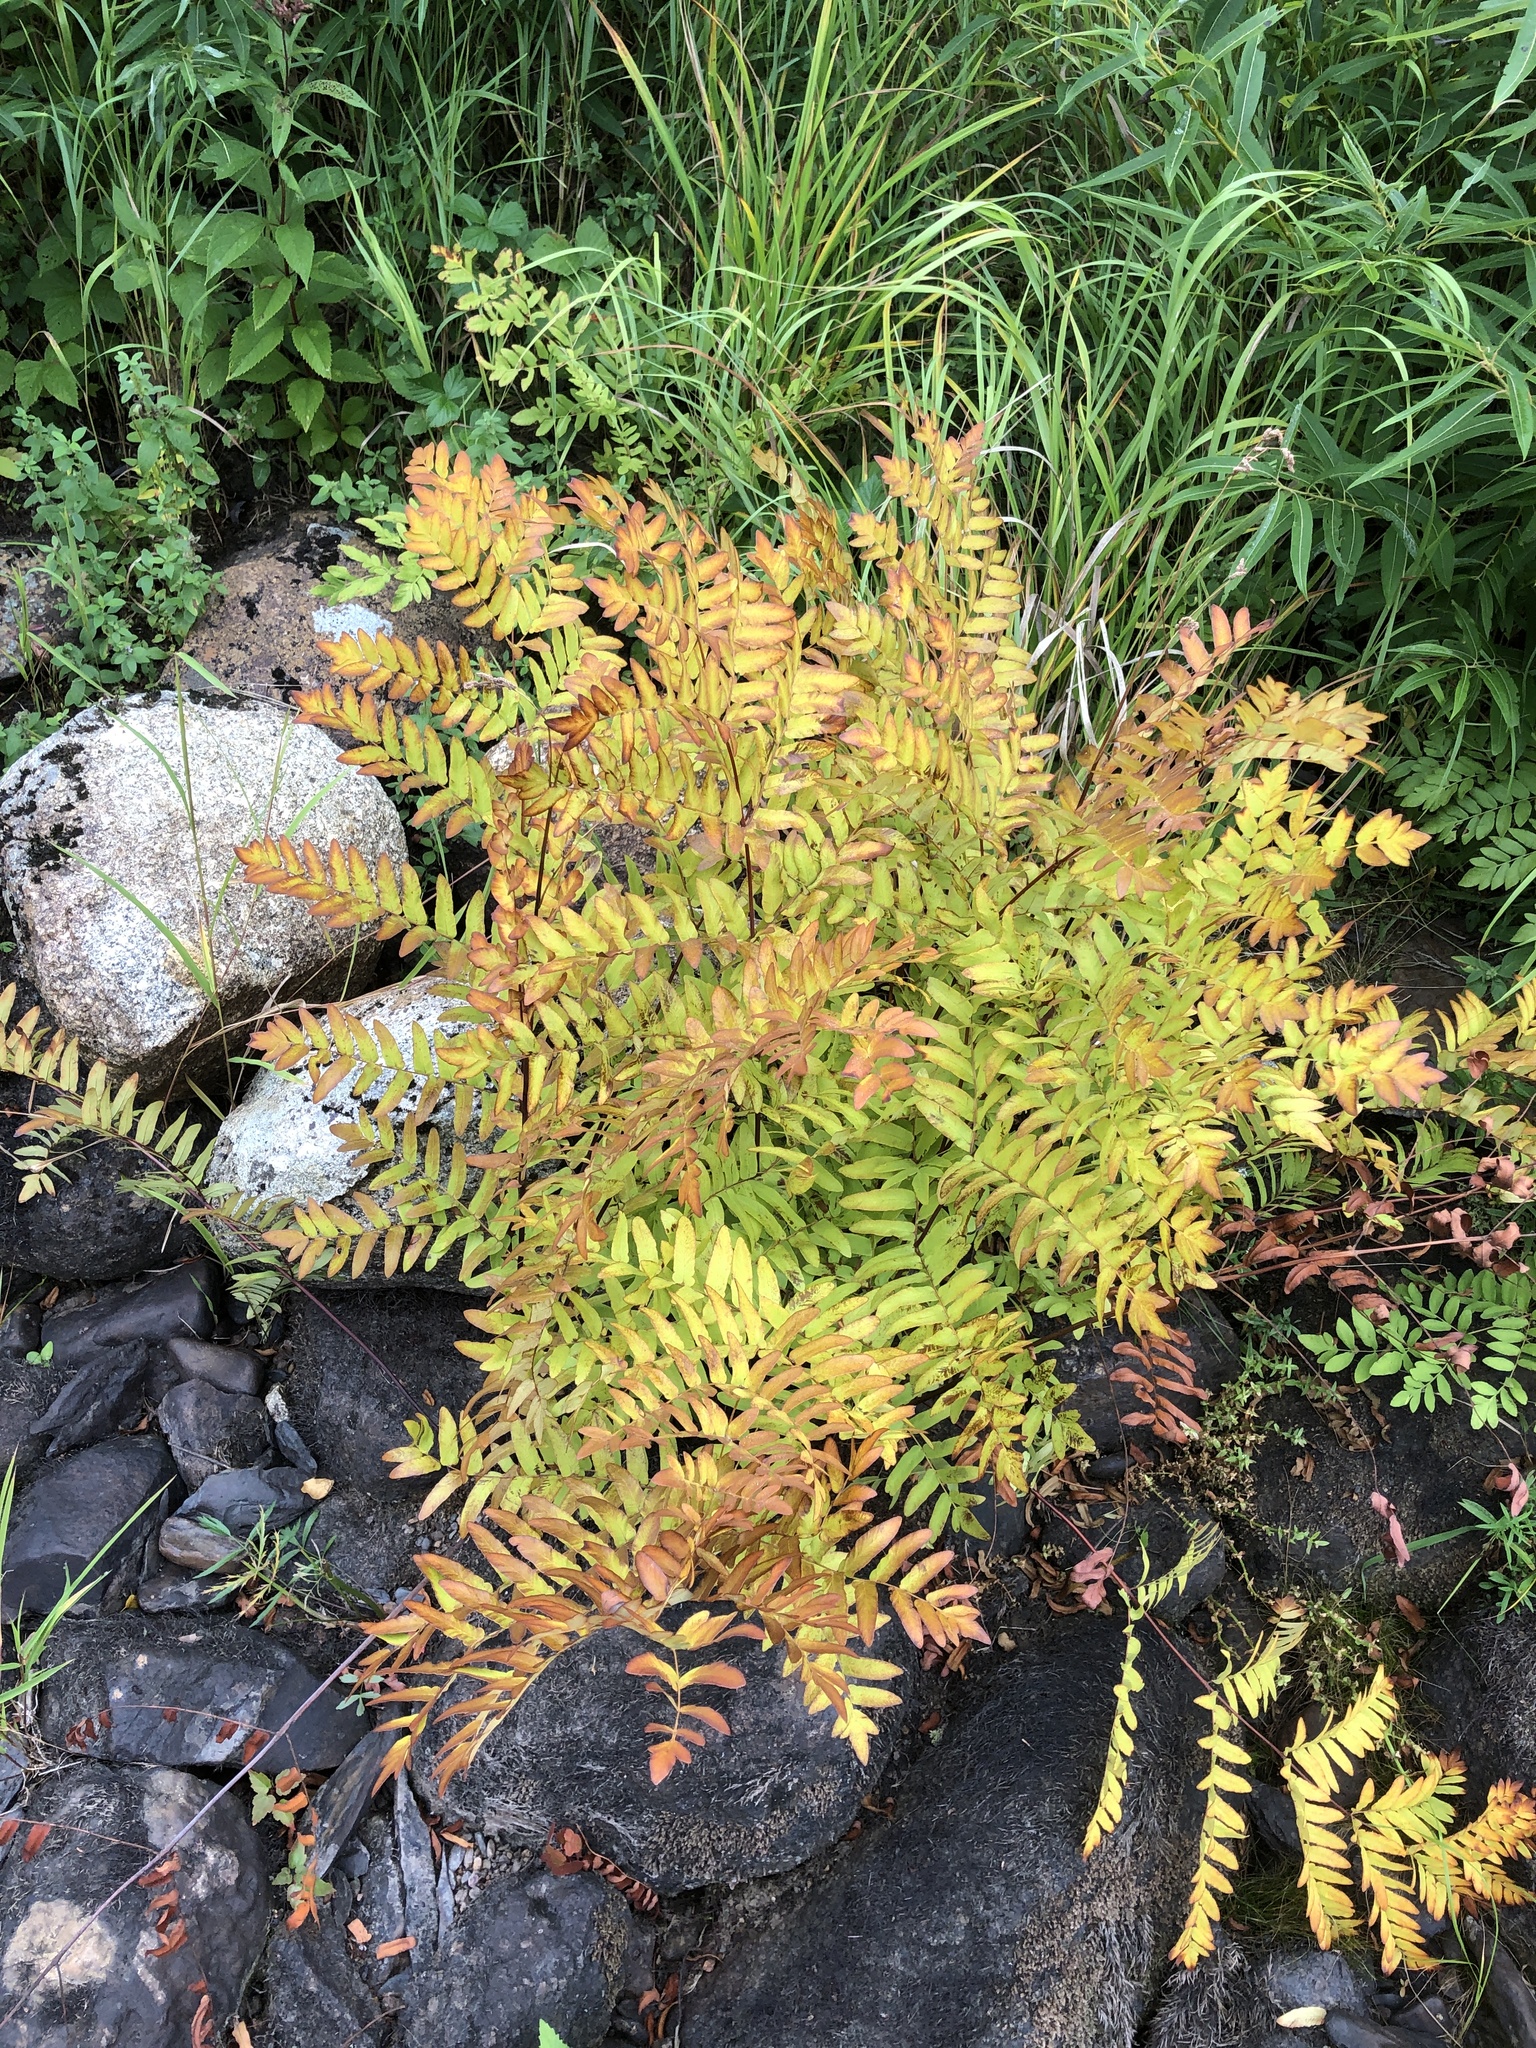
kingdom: Plantae
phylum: Tracheophyta
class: Polypodiopsida
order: Osmundales
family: Osmundaceae
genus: Osmunda
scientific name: Osmunda spectabilis
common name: American royal fern
